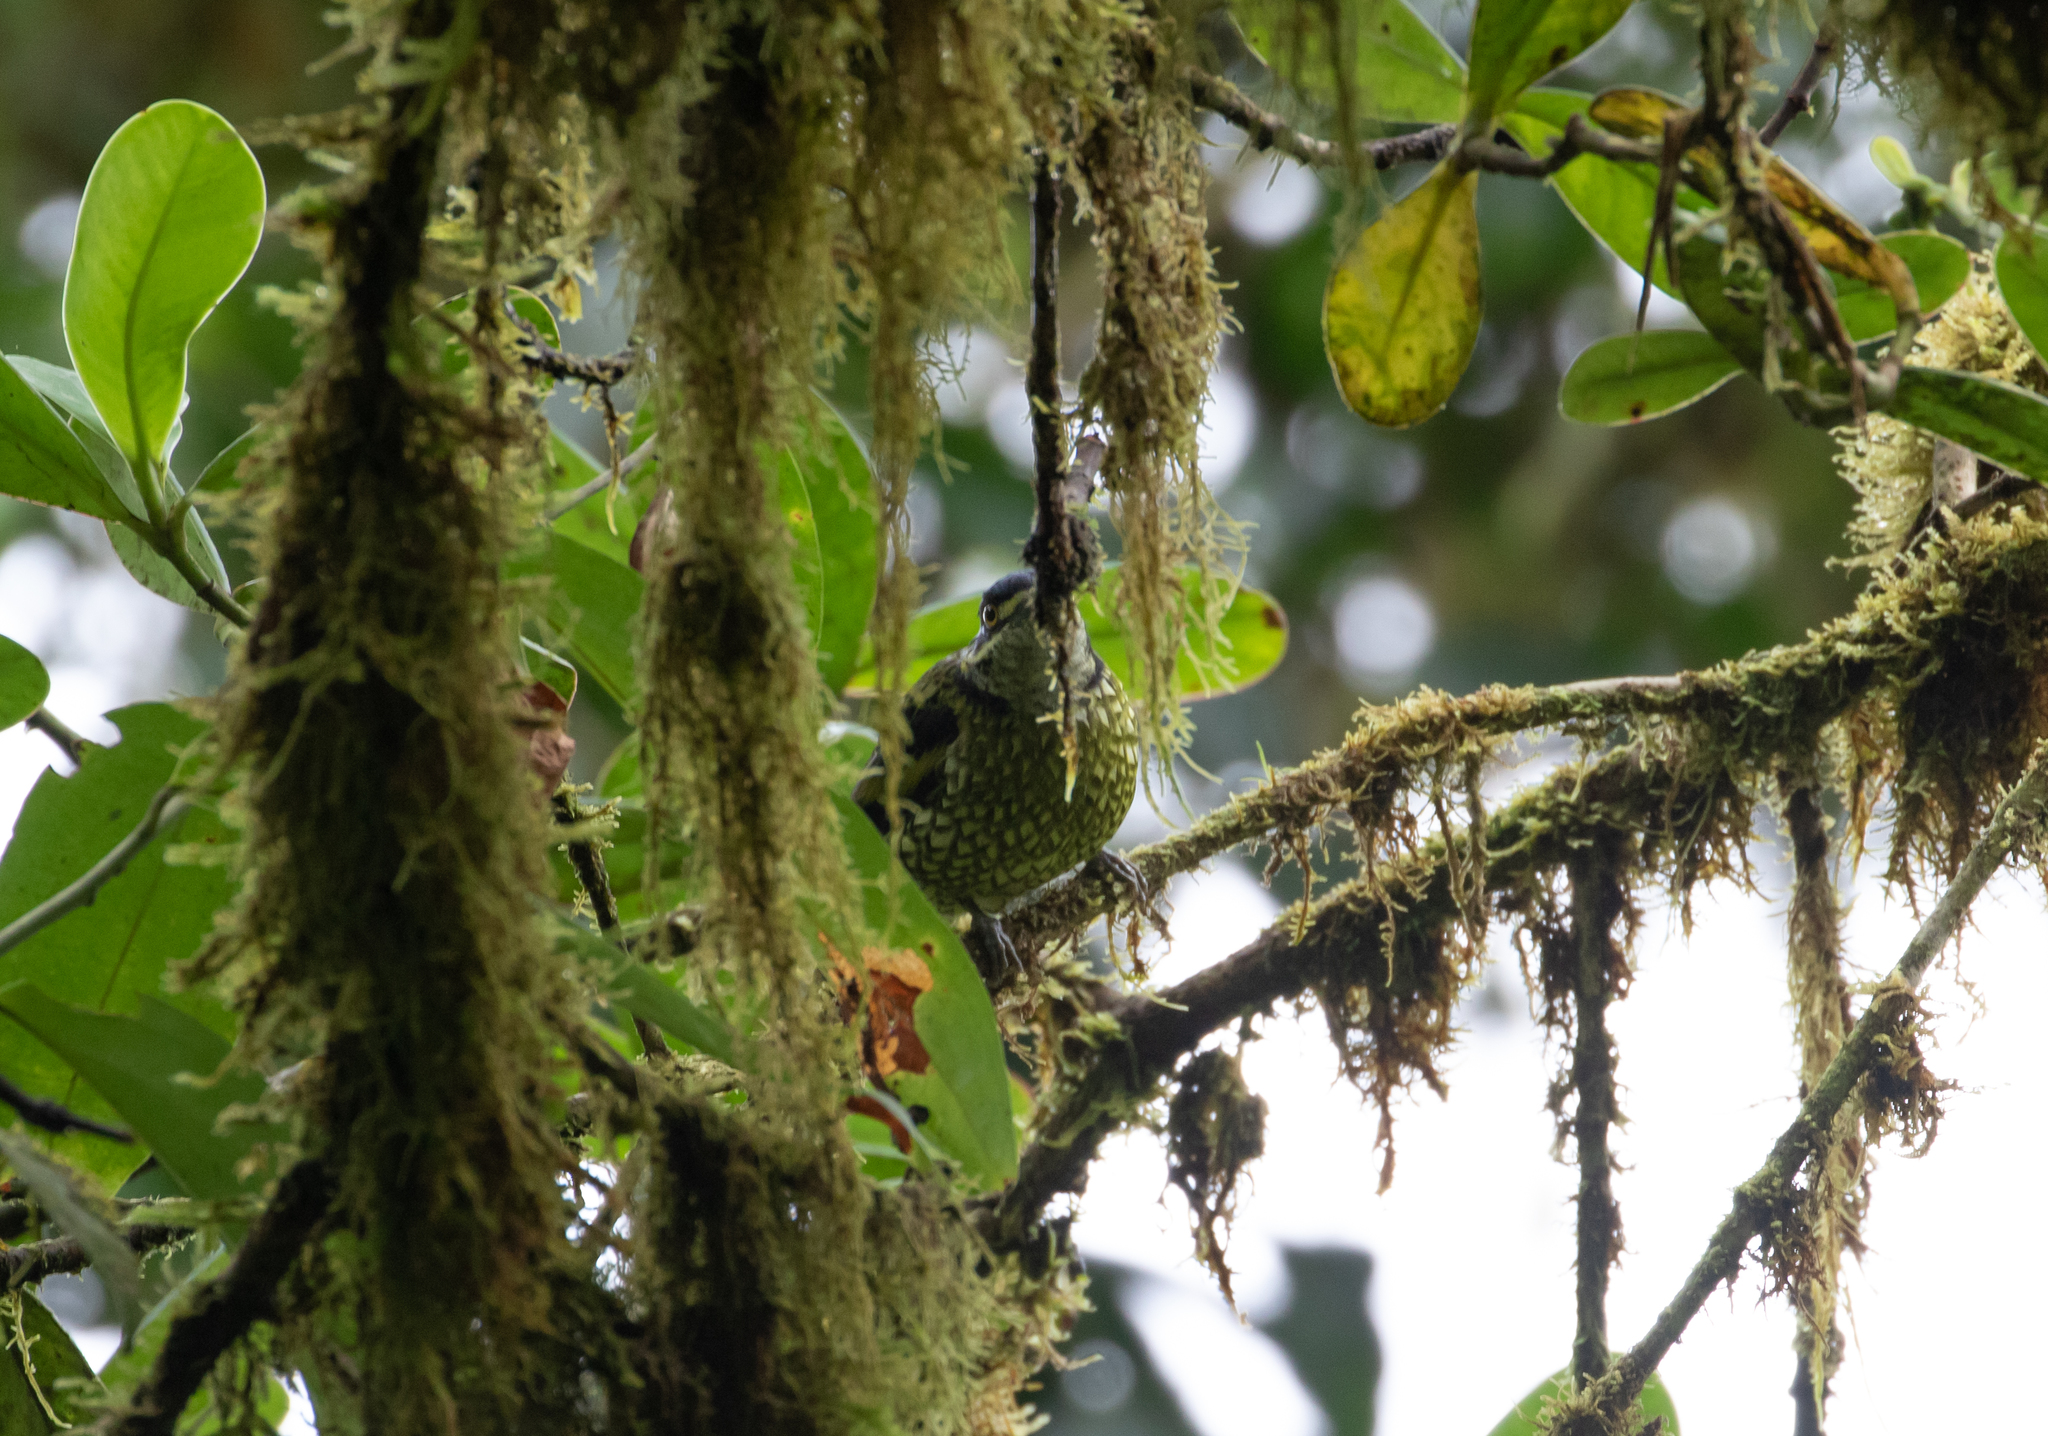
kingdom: Animalia
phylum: Chordata
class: Aves
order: Passeriformes
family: Cotingidae
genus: Ampelioides
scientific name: Ampelioides tschudii
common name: Scaled fruiteater
